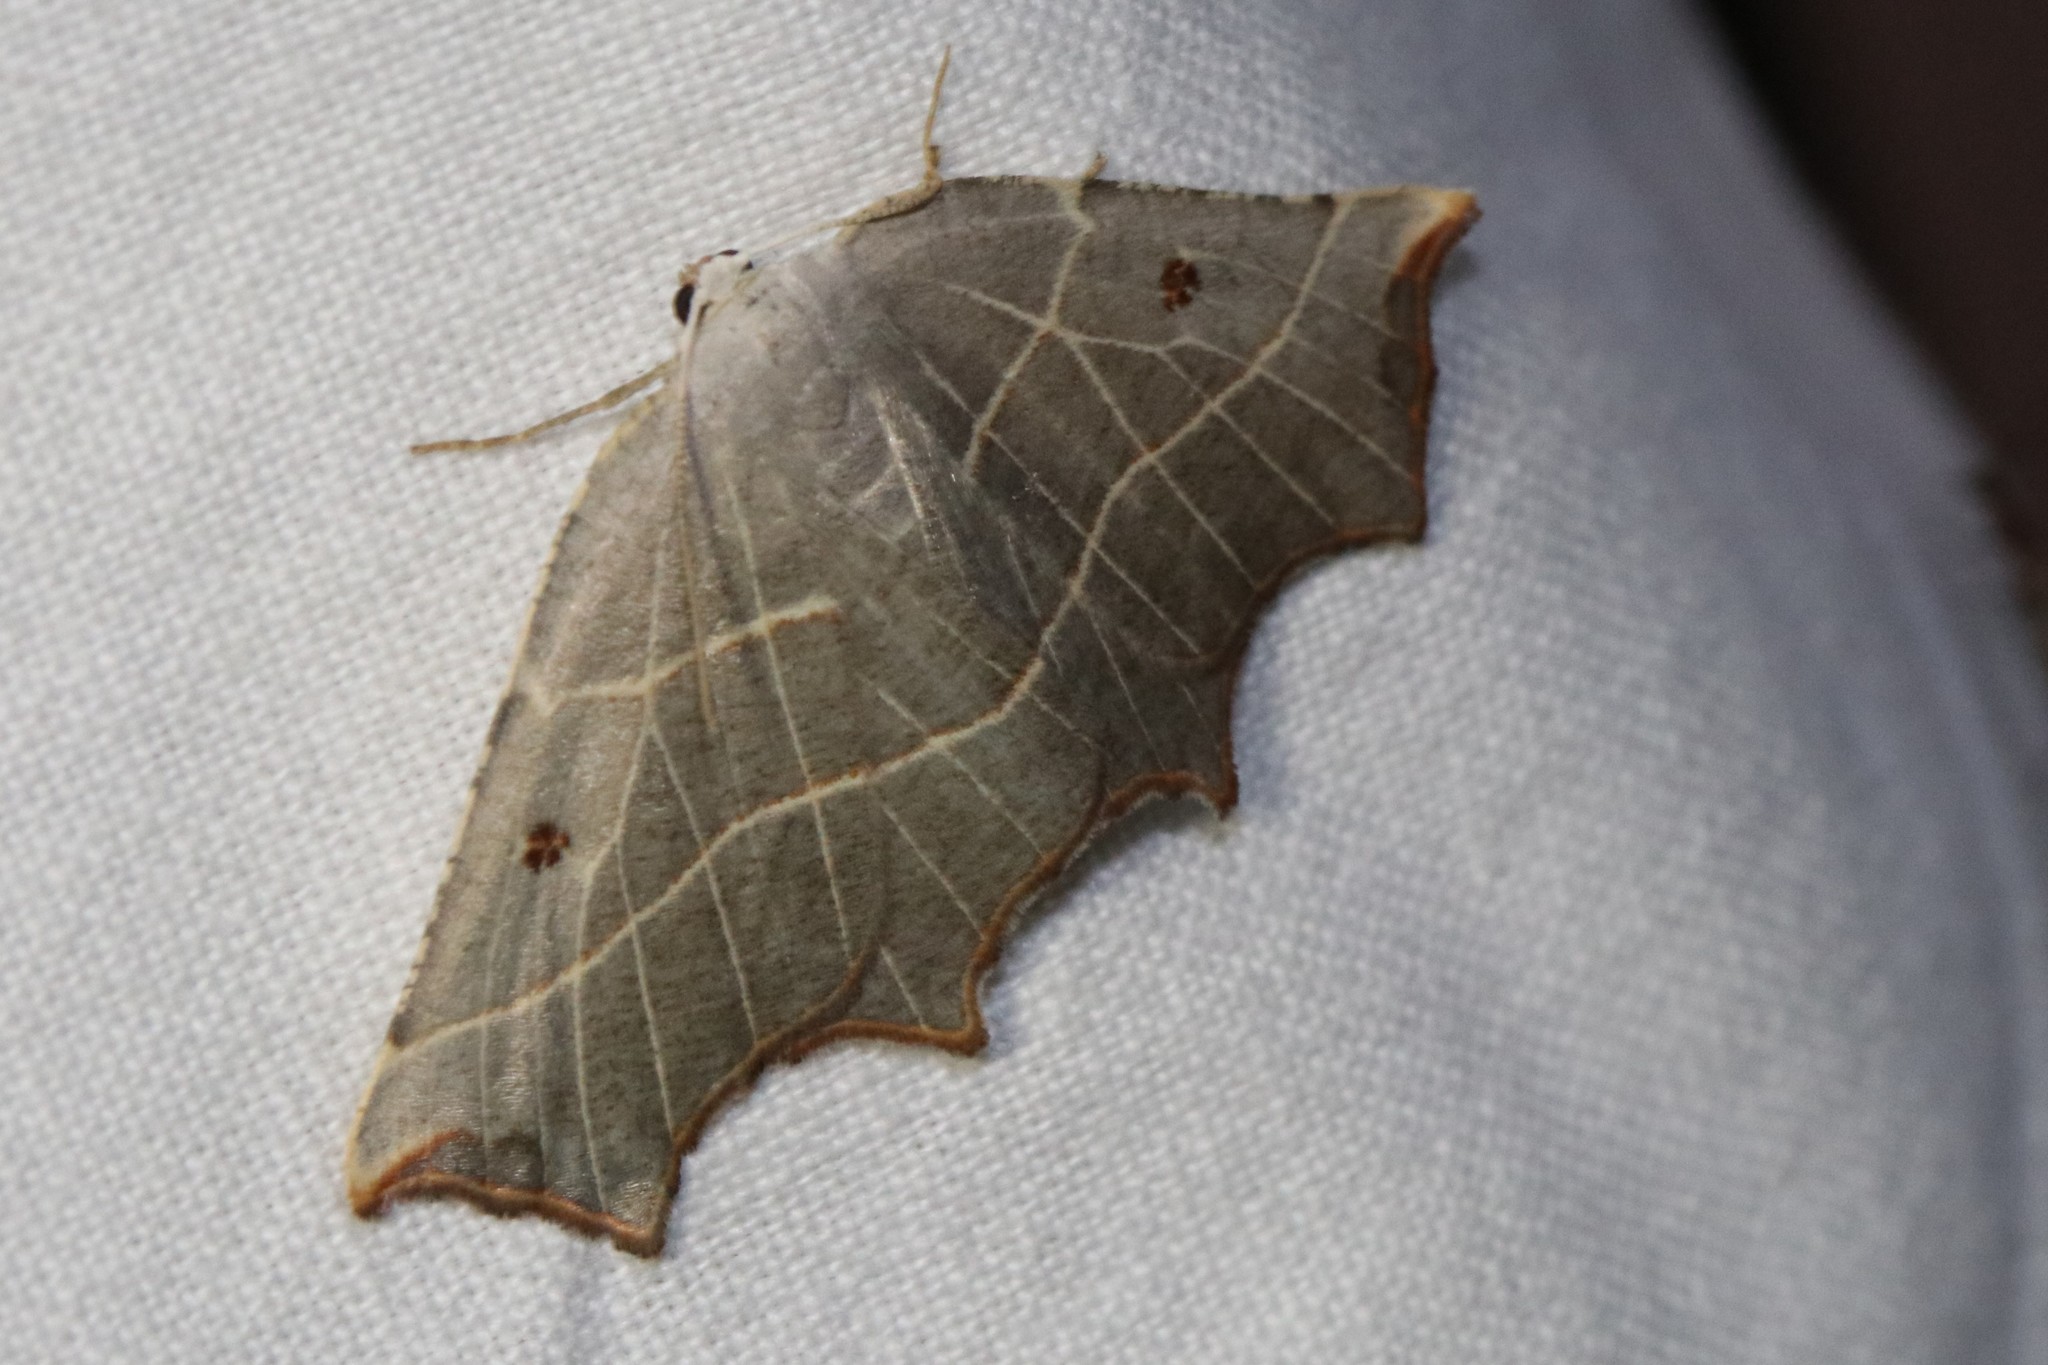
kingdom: Animalia
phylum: Arthropoda
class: Insecta
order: Lepidoptera
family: Geometridae
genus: Metanema
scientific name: Metanema inatomaria
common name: Pale metanema
